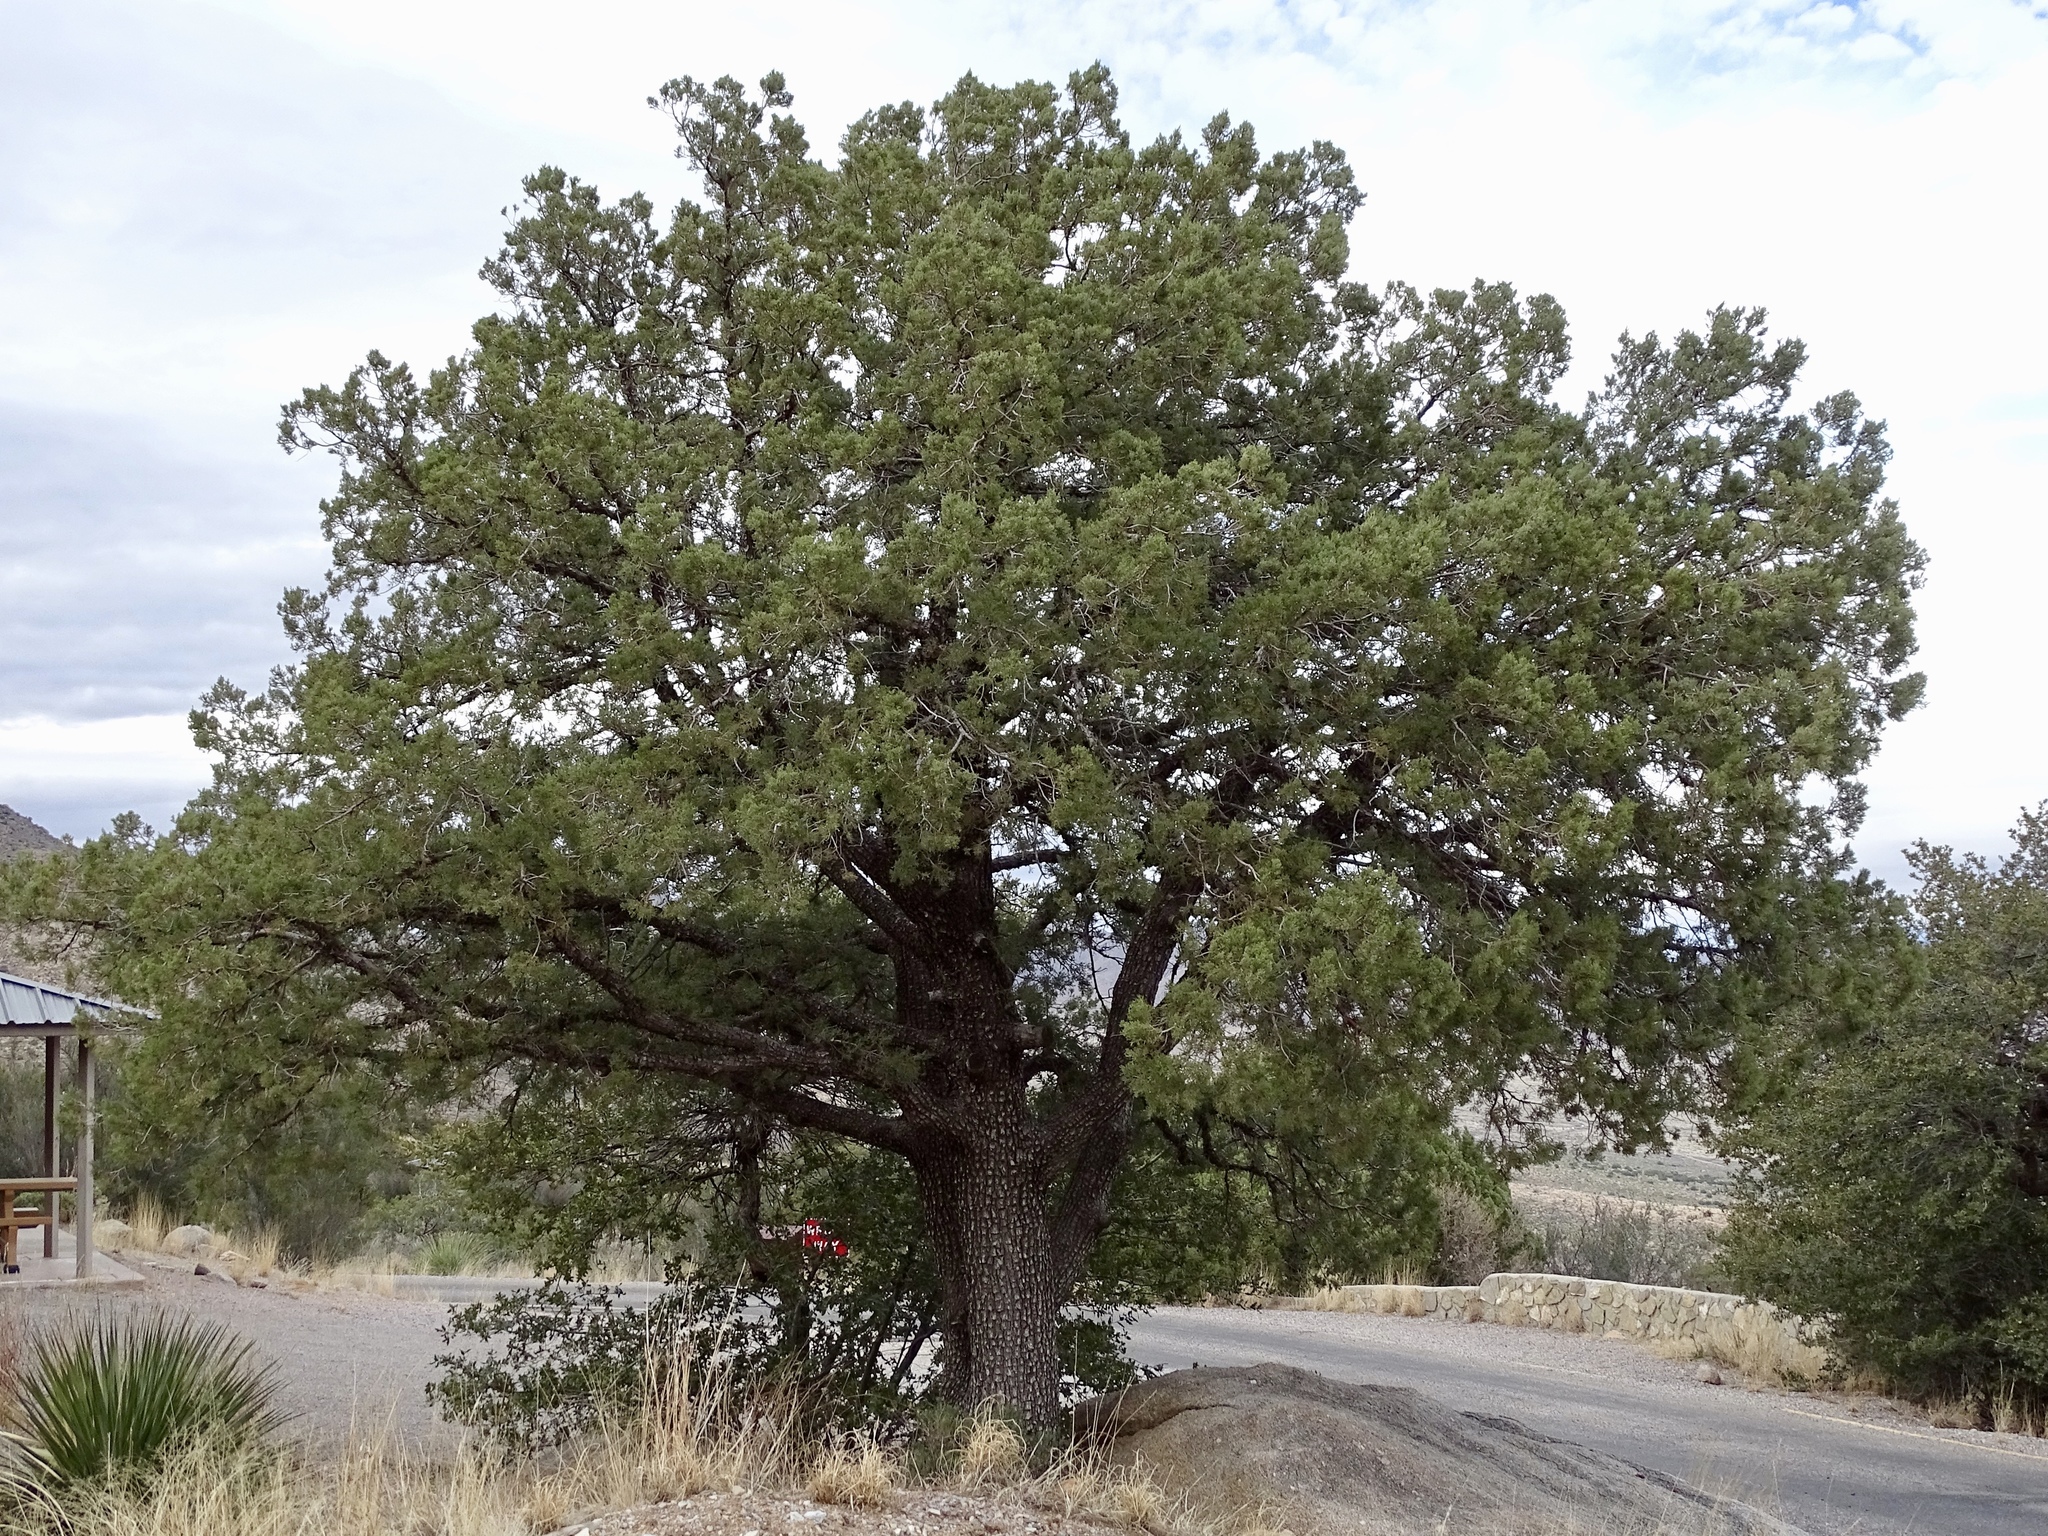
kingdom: Plantae
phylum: Tracheophyta
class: Pinopsida
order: Pinales
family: Cupressaceae
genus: Juniperus
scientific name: Juniperus deppeana
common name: Alligator juniper
